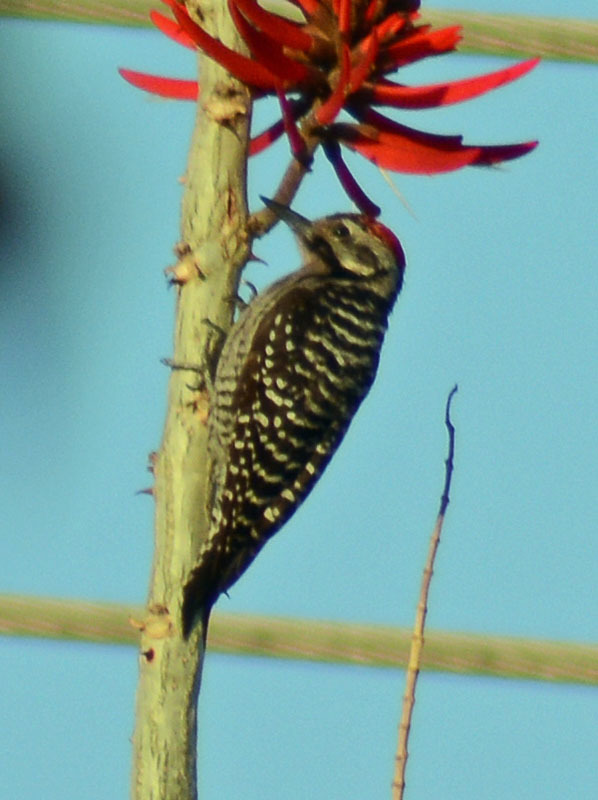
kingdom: Animalia
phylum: Chordata
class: Aves
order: Piciformes
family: Picidae
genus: Dryobates
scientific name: Dryobates scalaris
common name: Ladder-backed woodpecker
